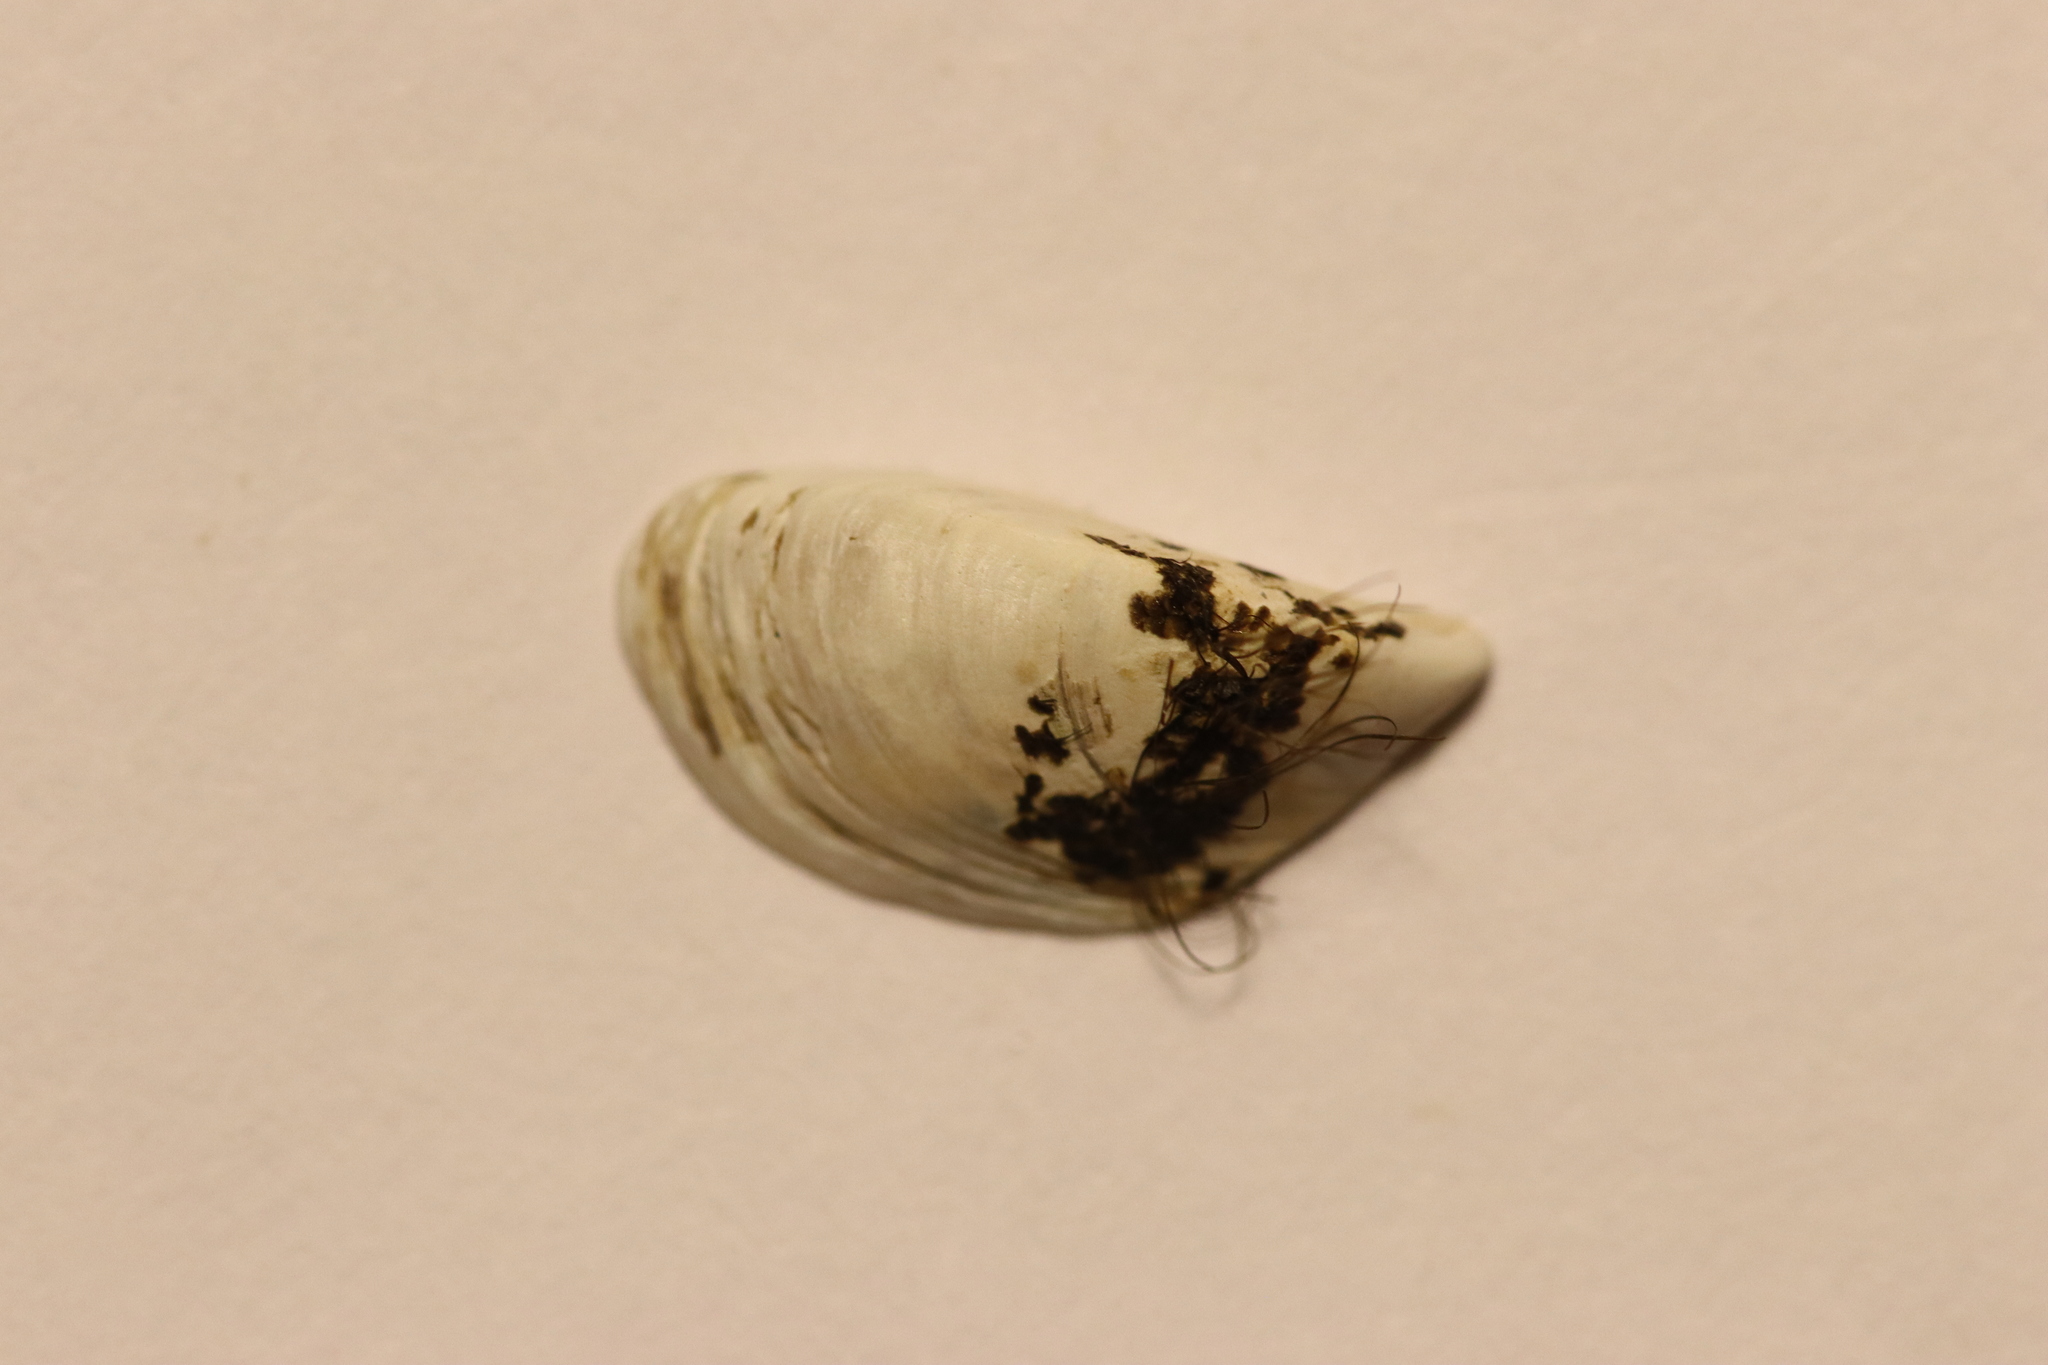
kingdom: Animalia
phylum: Mollusca
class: Bivalvia
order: Myida
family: Dreissenidae
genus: Dreissena
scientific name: Dreissena polymorpha
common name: Zebra mussel
